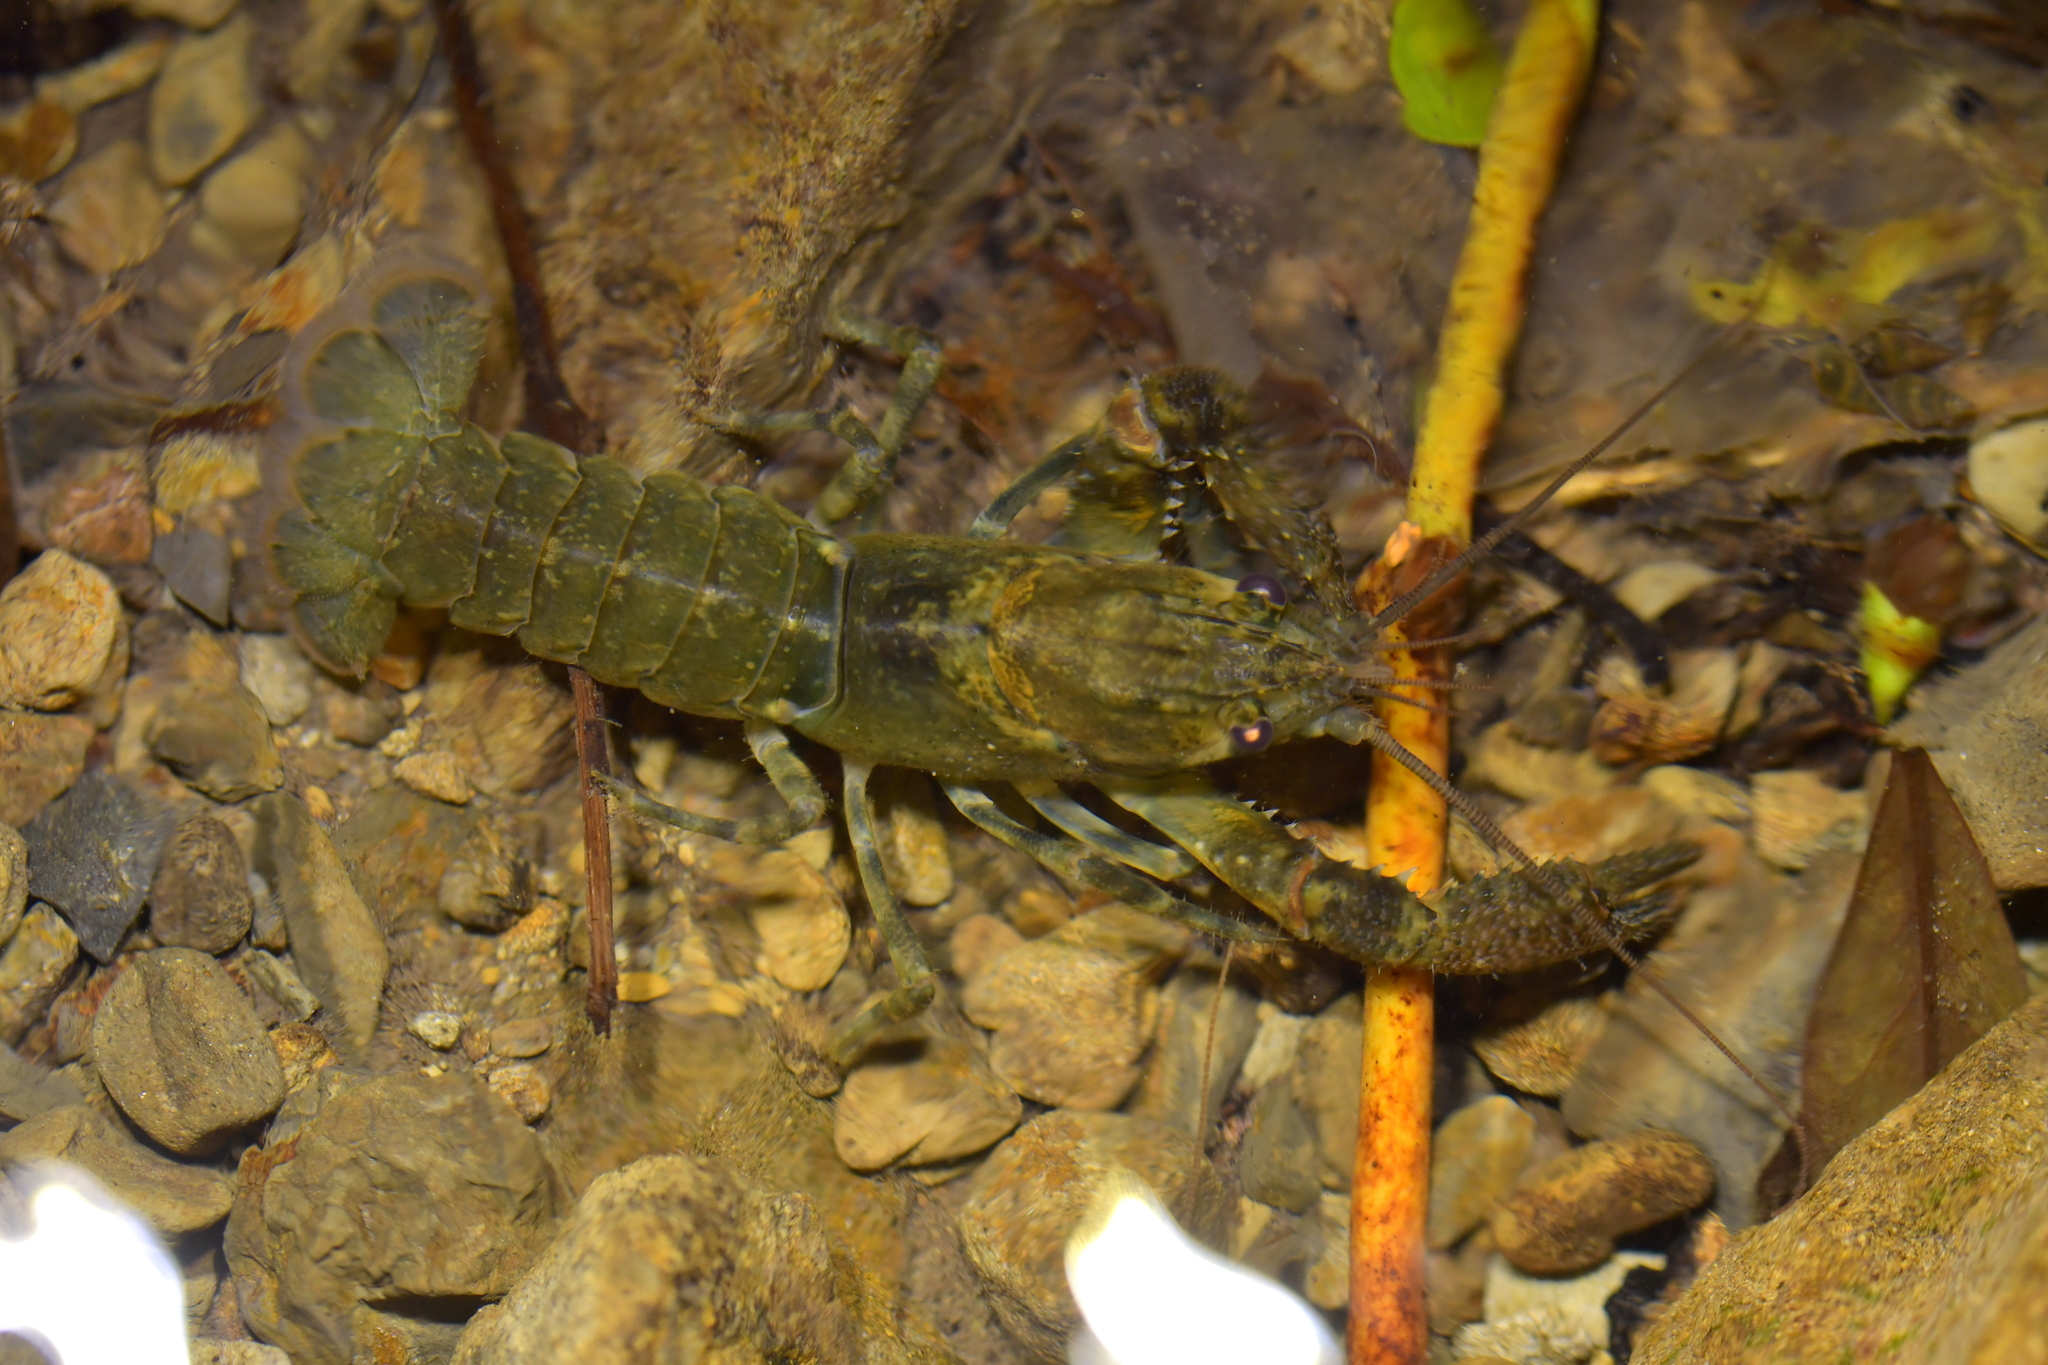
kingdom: Animalia
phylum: Arthropoda
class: Malacostraca
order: Decapoda
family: Parastacidae
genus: Paranephrops
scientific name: Paranephrops planifrons
